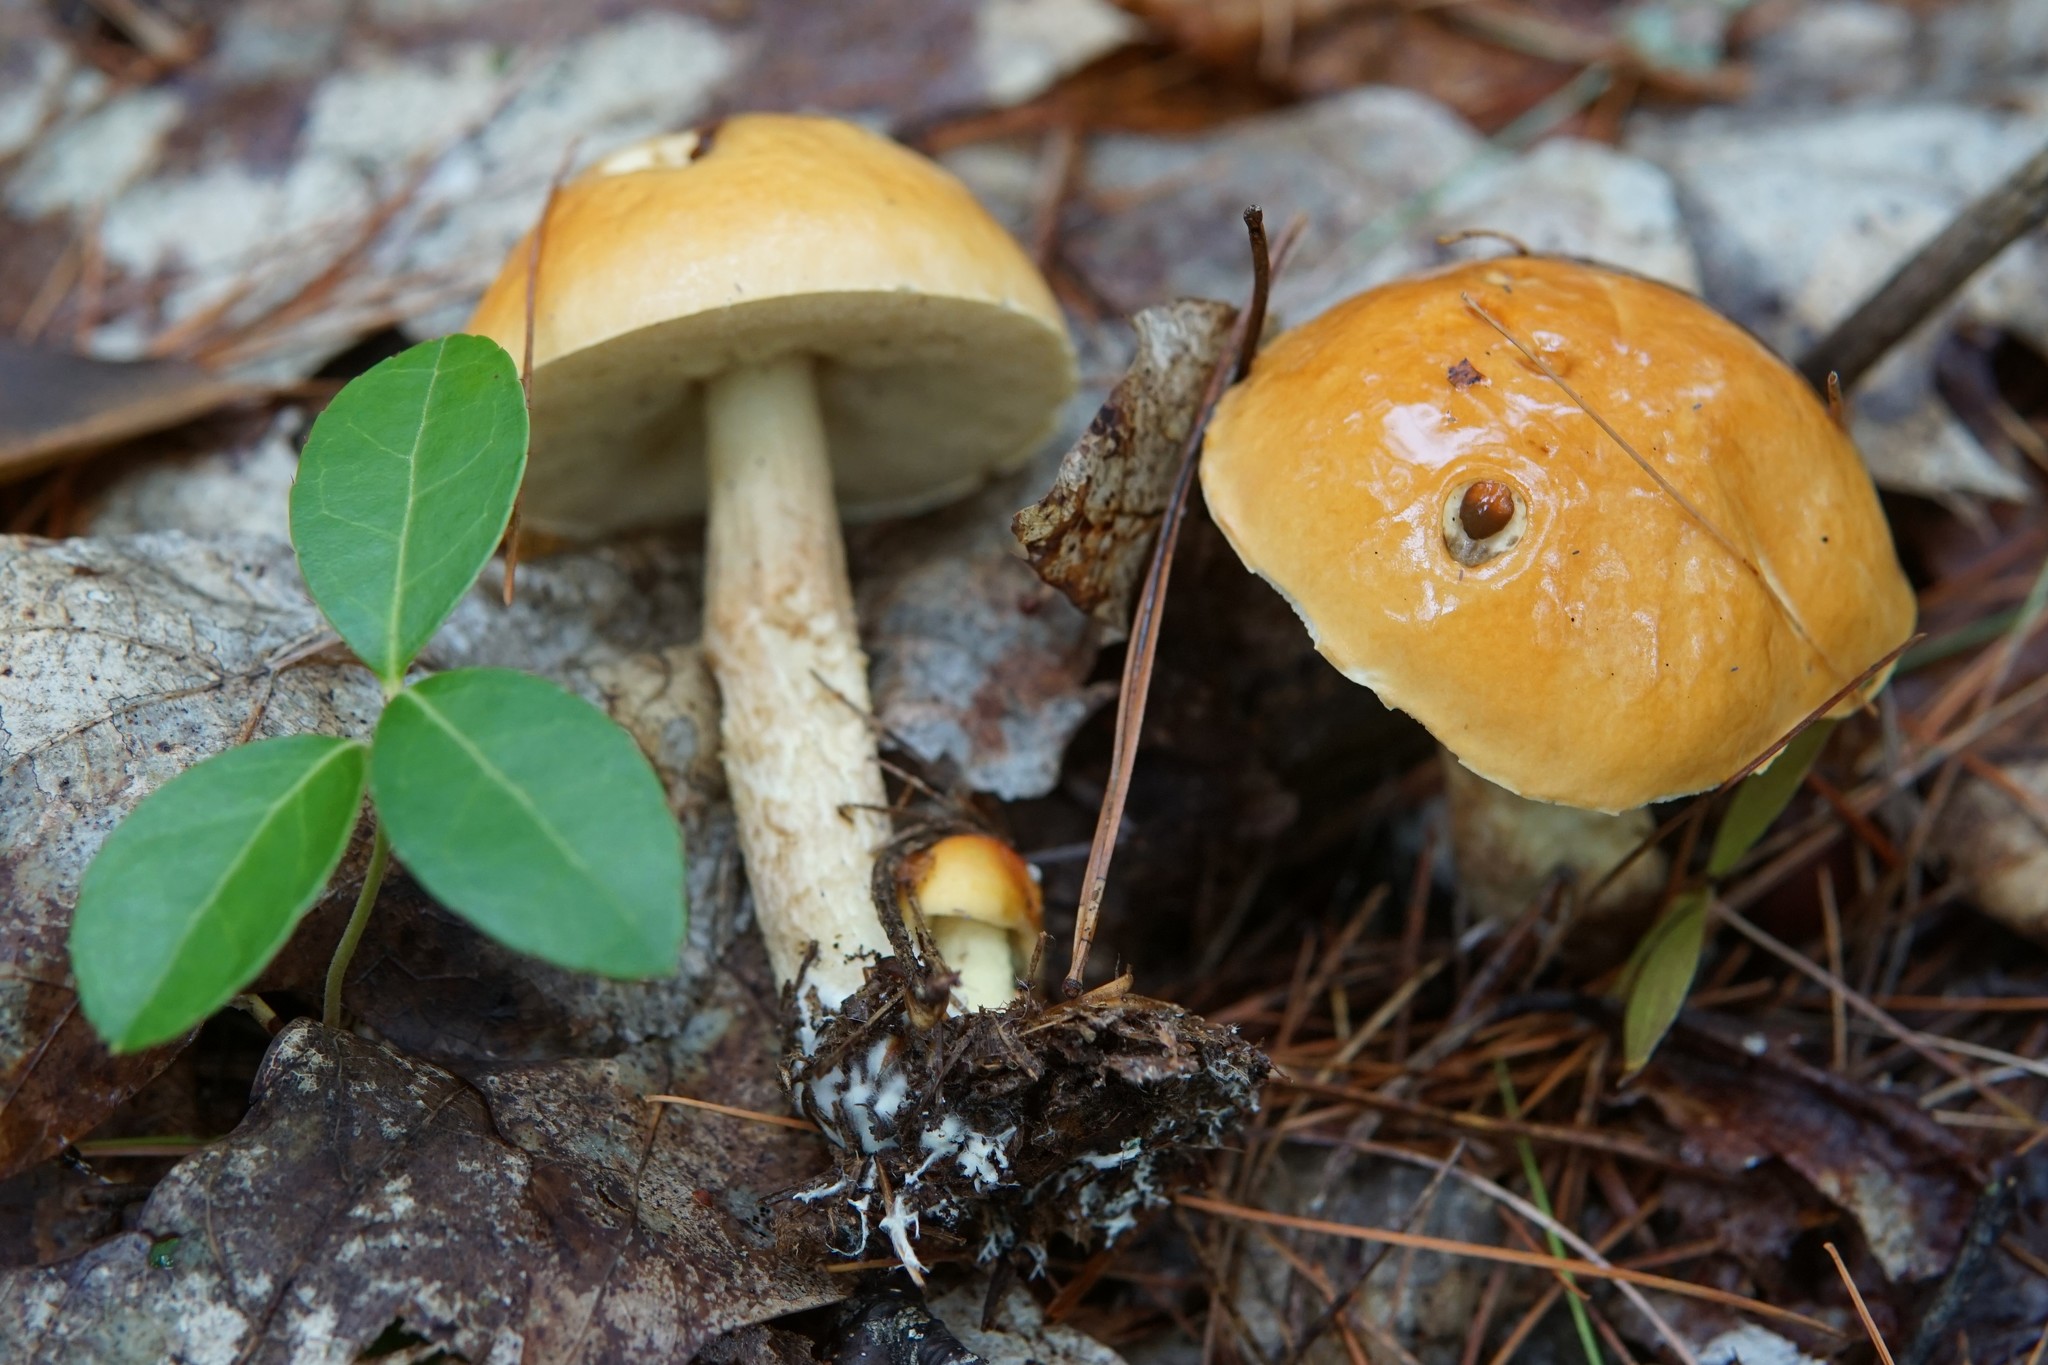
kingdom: Fungi
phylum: Basidiomycota
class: Agaricomycetes
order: Boletales
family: Boletaceae
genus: Leccinum
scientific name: Leccinum longicurvipes
